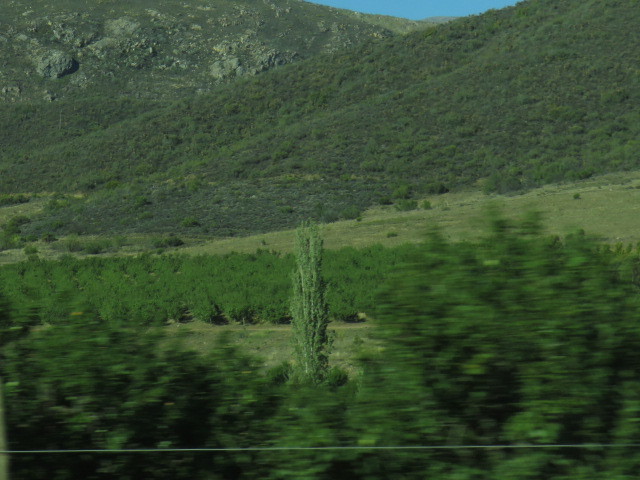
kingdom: Plantae
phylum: Tracheophyta
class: Magnoliopsida
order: Malpighiales
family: Salicaceae
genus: Populus
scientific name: Populus nigra
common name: Black poplar
